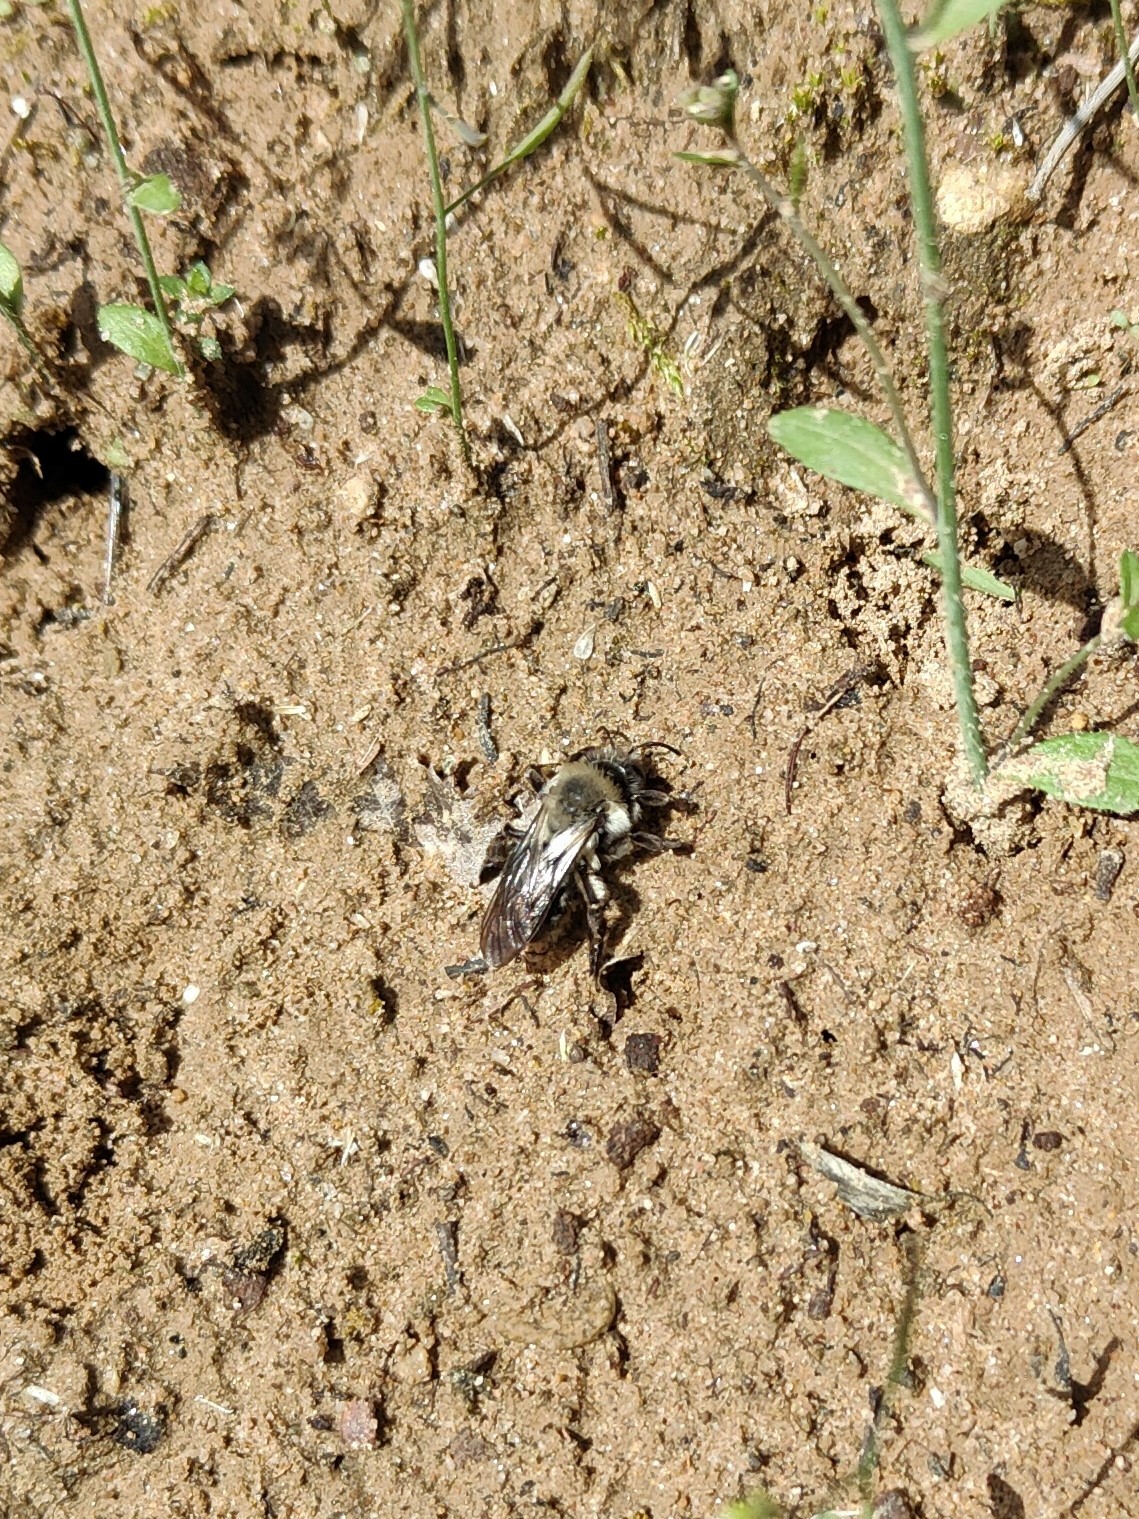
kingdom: Animalia
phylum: Arthropoda
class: Insecta
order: Hymenoptera
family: Andrenidae
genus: Andrena
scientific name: Andrena vaga
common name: Grey-backed mining bee
